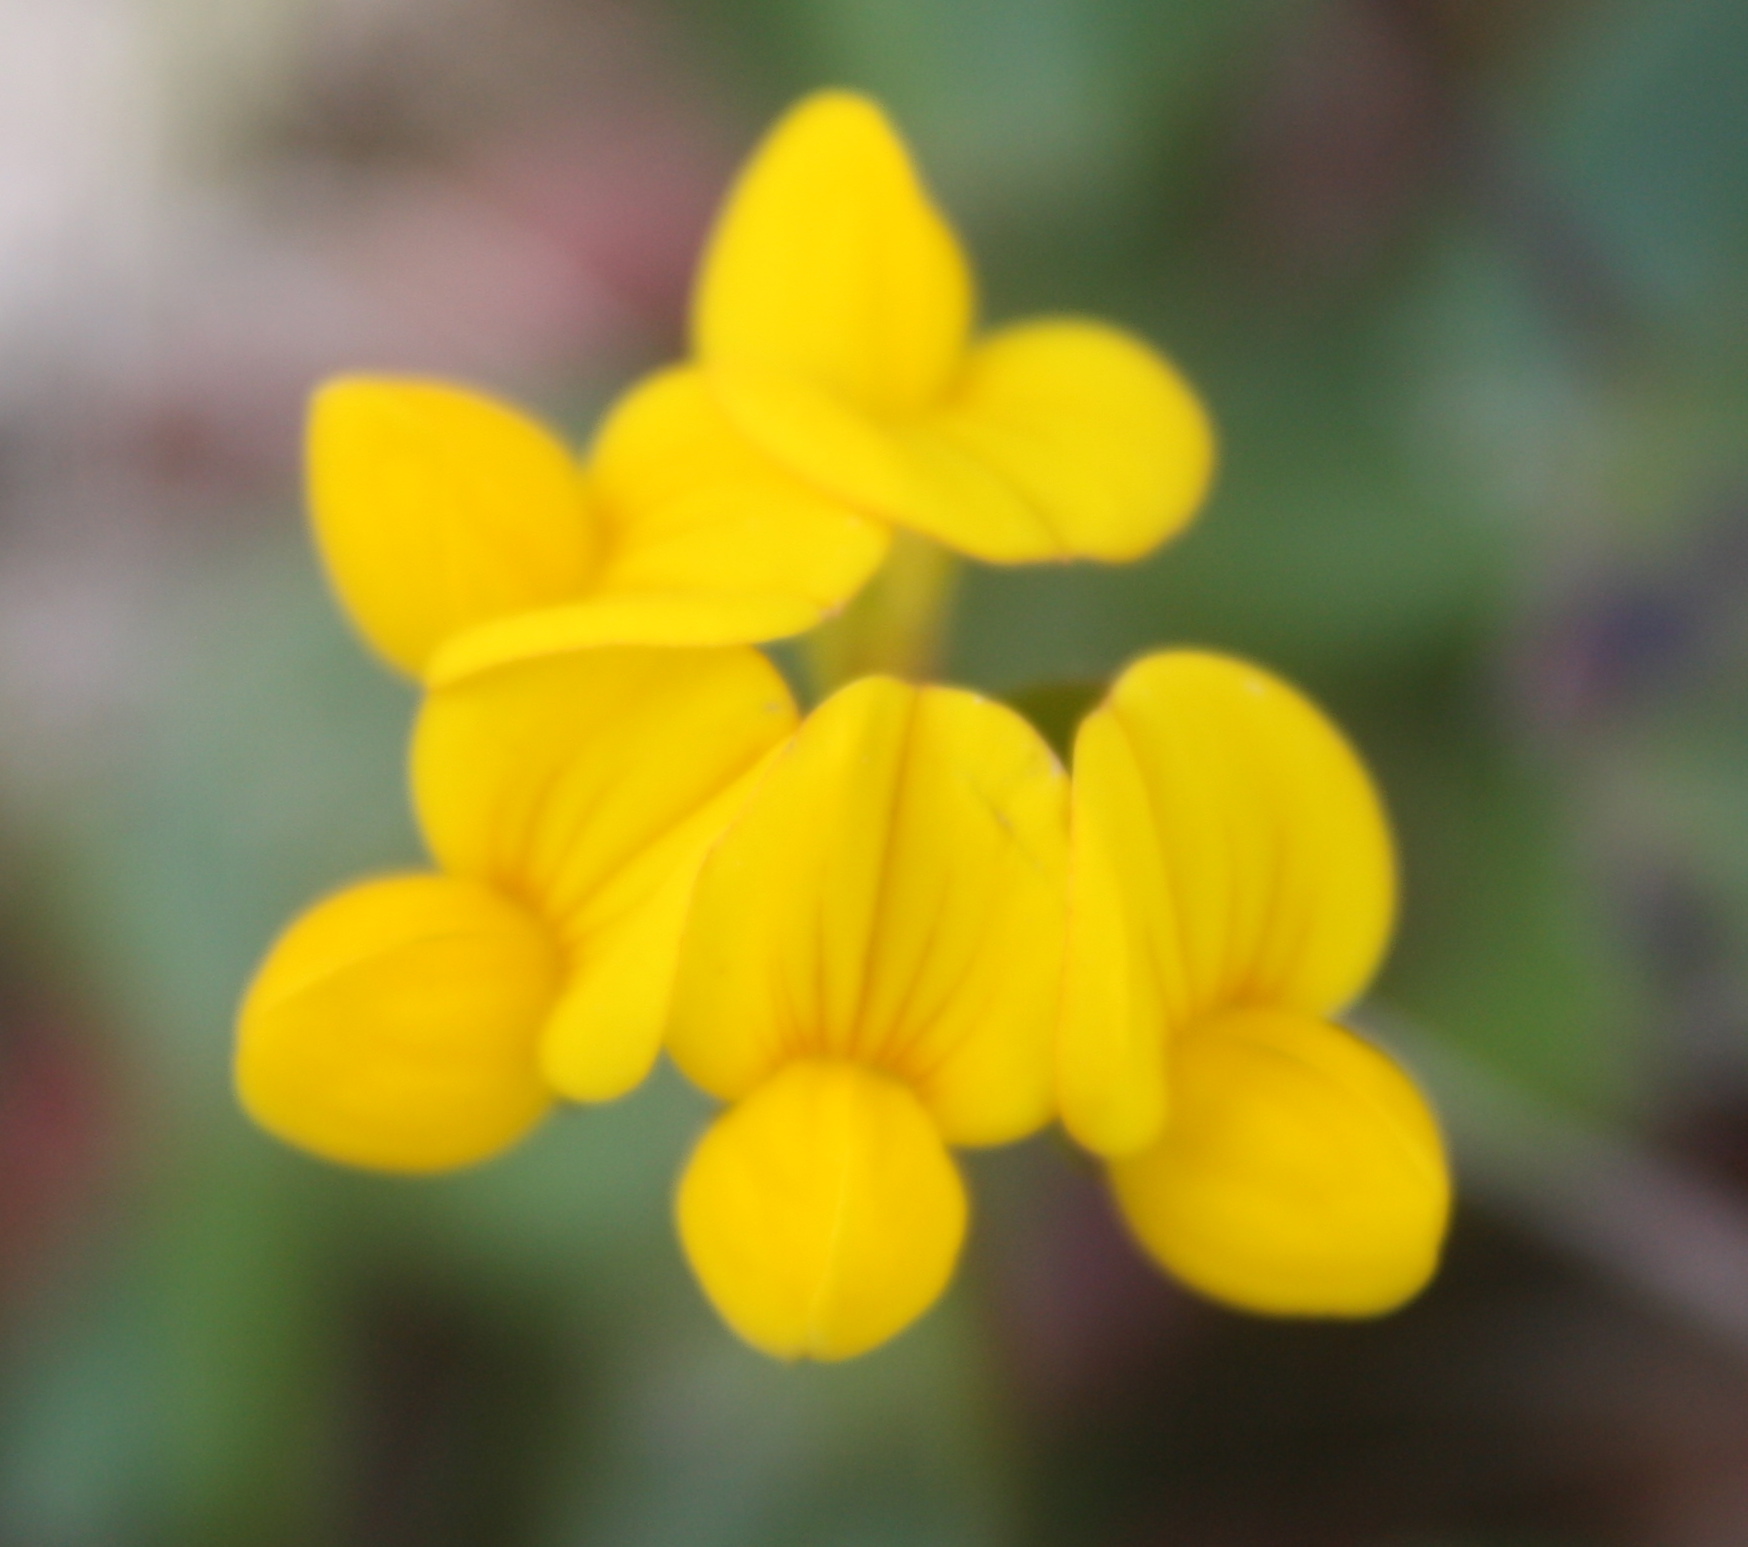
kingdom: Plantae
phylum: Tracheophyta
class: Magnoliopsida
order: Fabales
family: Fabaceae
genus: Lotus
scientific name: Lotus corniculatus
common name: Common bird's-foot-trefoil
